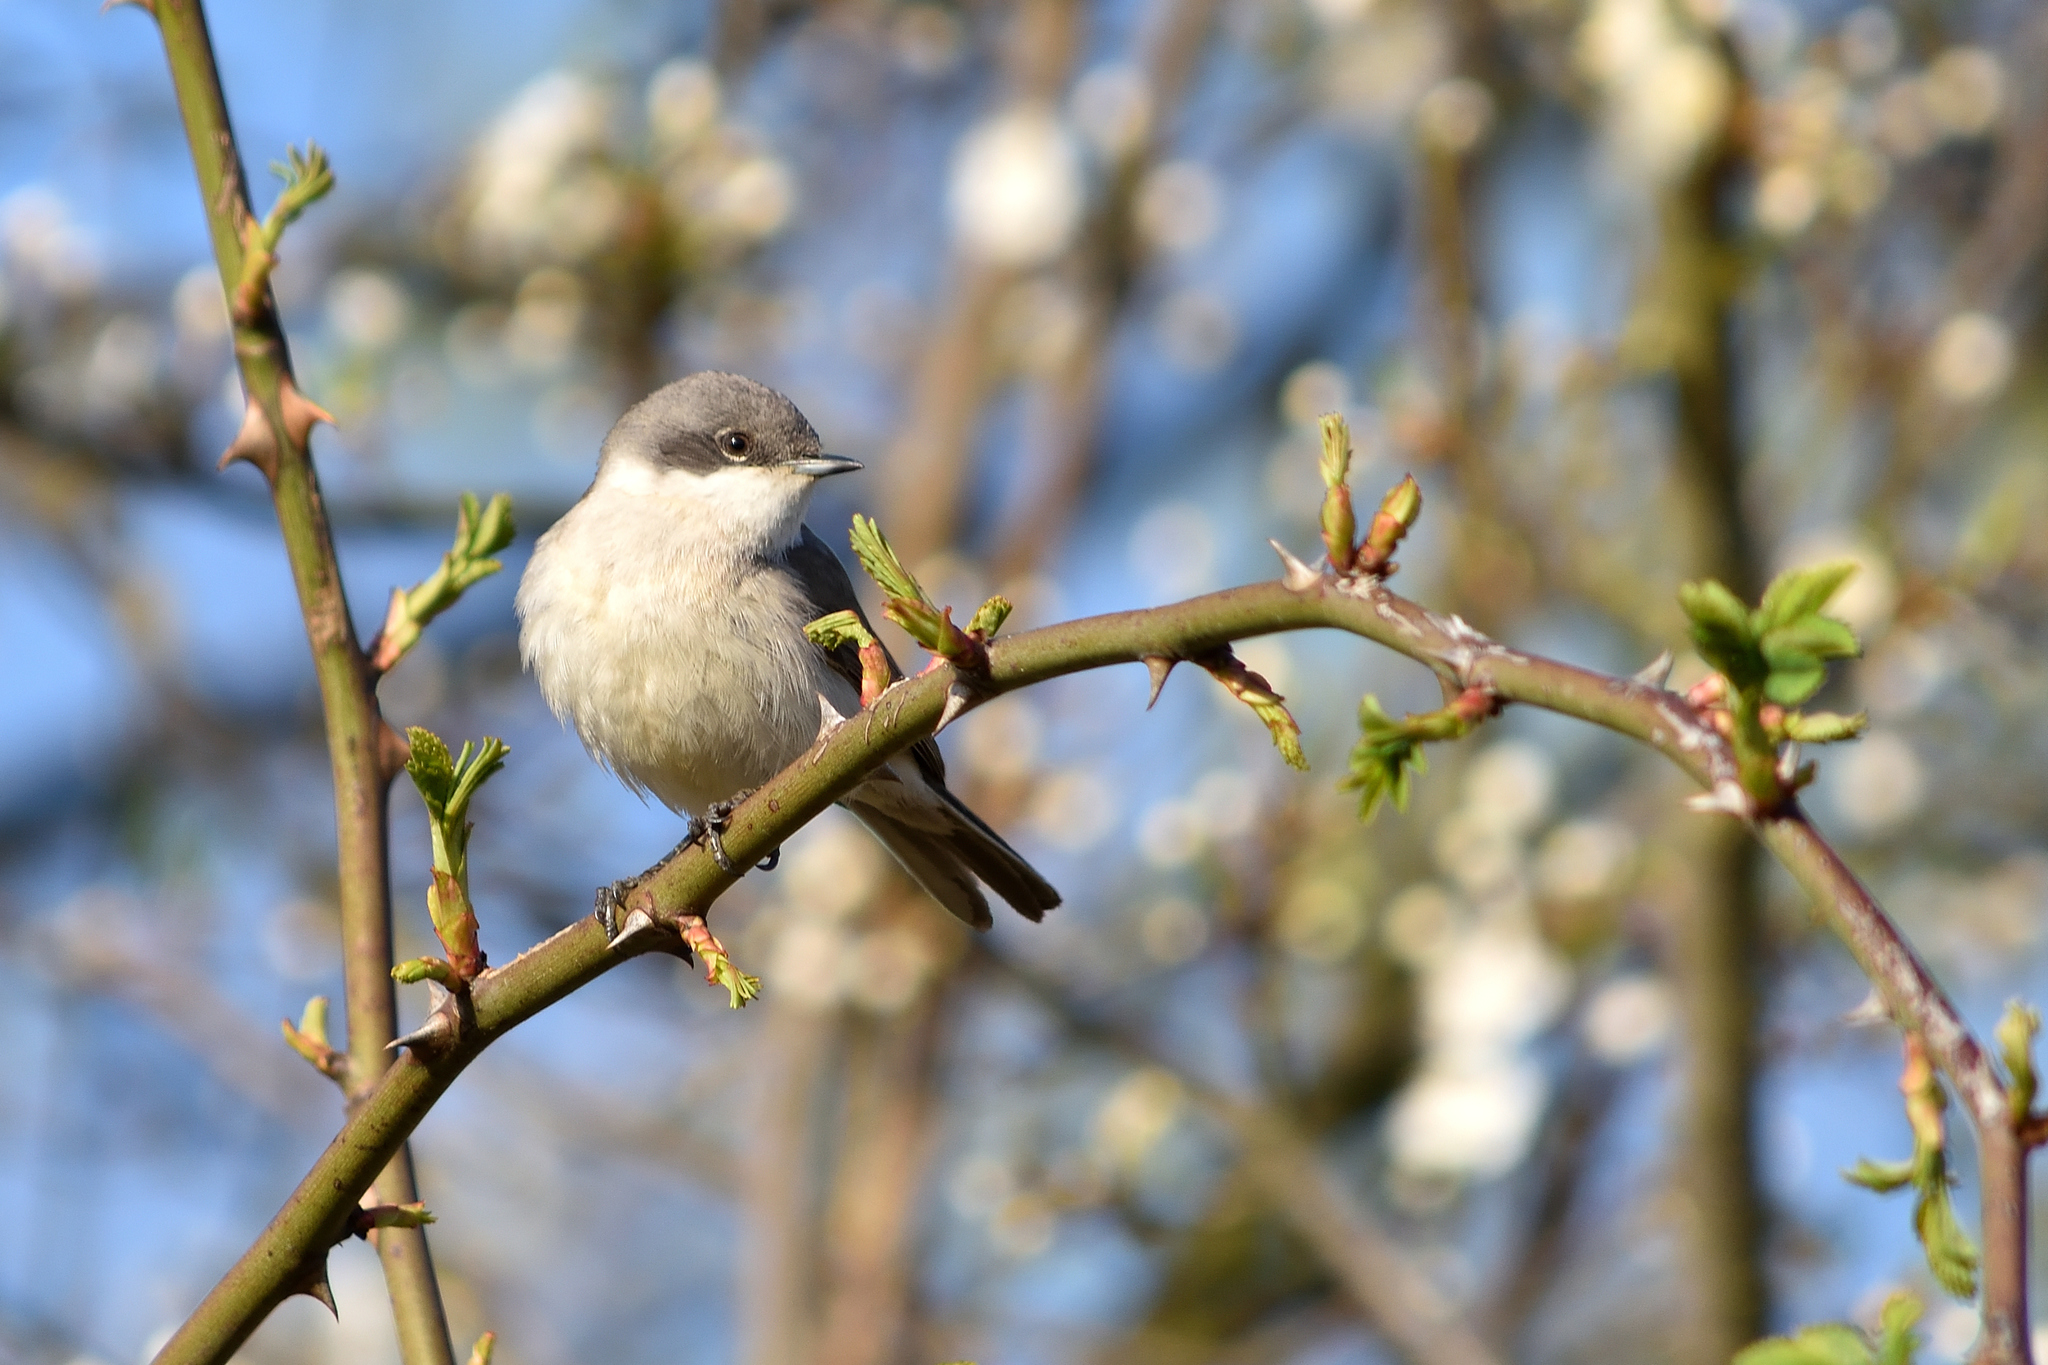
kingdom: Animalia
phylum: Chordata
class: Aves
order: Passeriformes
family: Sylviidae
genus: Sylvia
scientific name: Sylvia curruca
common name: Lesser whitethroat
